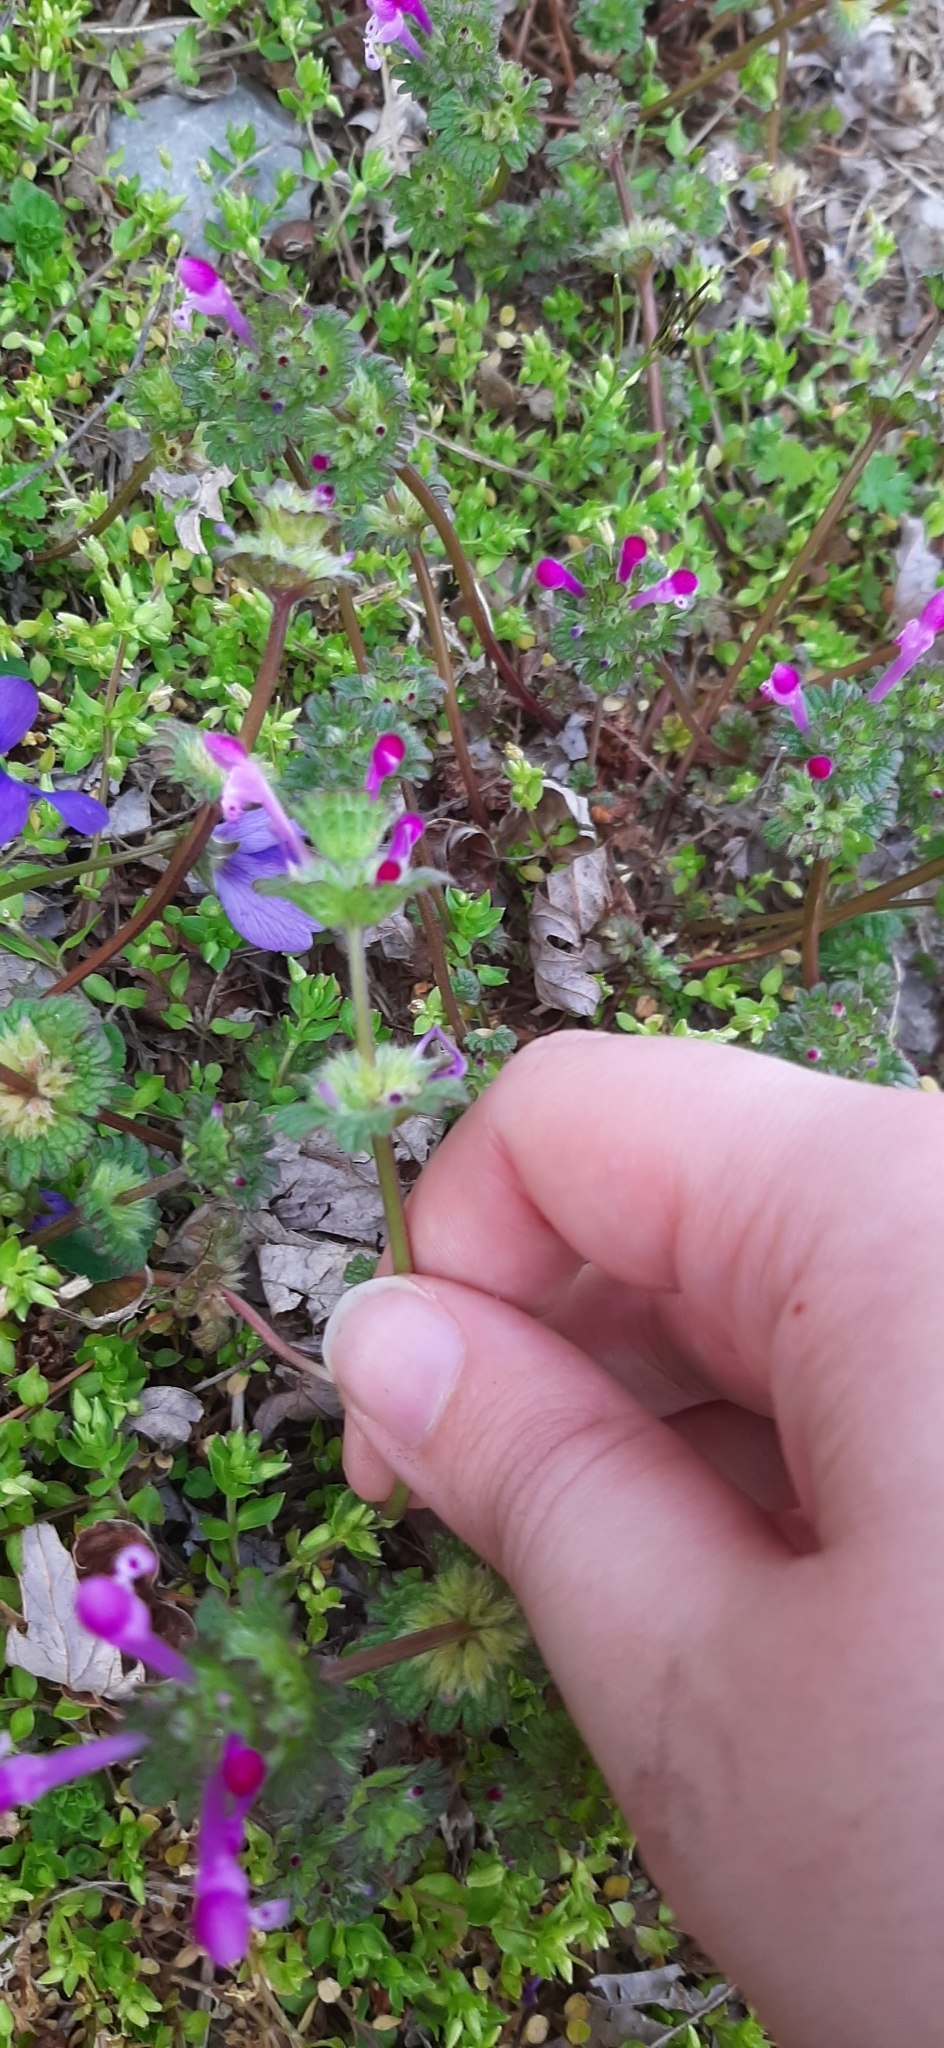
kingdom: Plantae
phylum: Tracheophyta
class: Magnoliopsida
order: Lamiales
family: Lamiaceae
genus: Lamium
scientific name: Lamium amplexicaule
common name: Henbit dead-nettle
